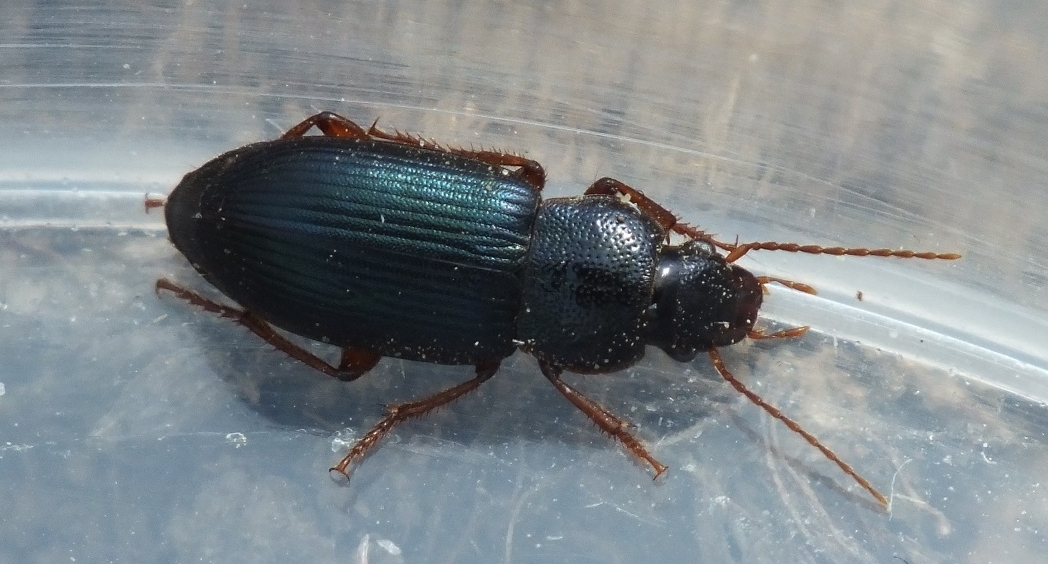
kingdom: Animalia
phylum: Arthropoda
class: Insecta
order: Coleoptera
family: Carabidae
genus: Ophonus
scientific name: Ophonus azureus
